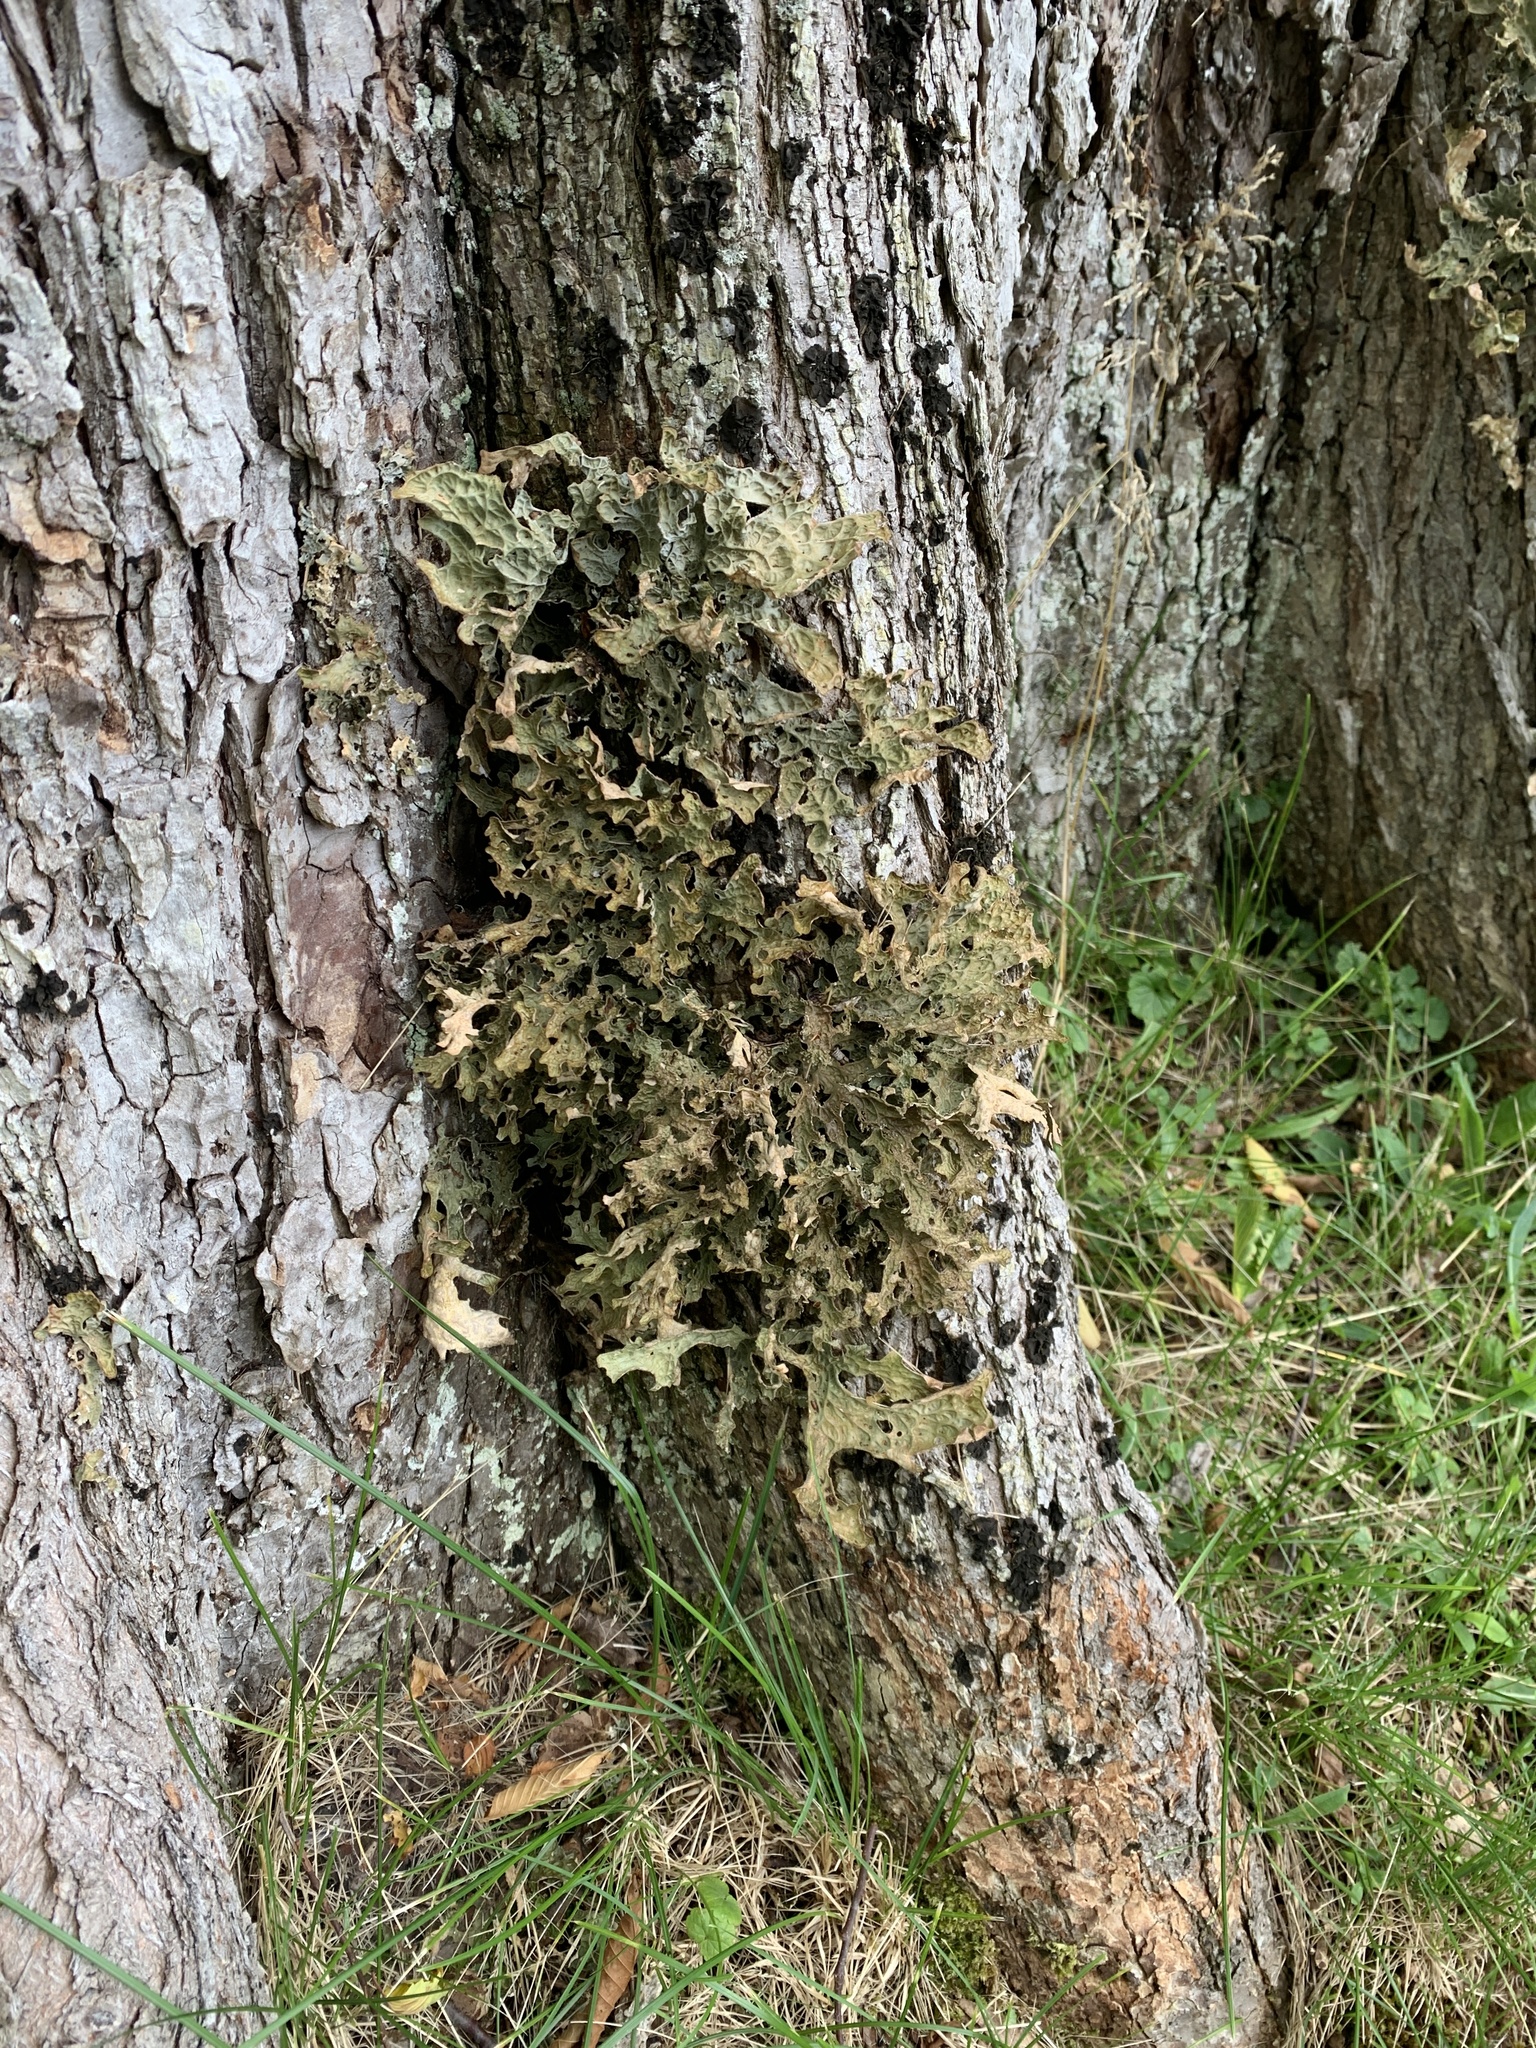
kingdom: Fungi
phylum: Ascomycota
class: Lecanoromycetes
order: Peltigerales
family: Lobariaceae
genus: Lobaria
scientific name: Lobaria pulmonaria
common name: Lungwort
